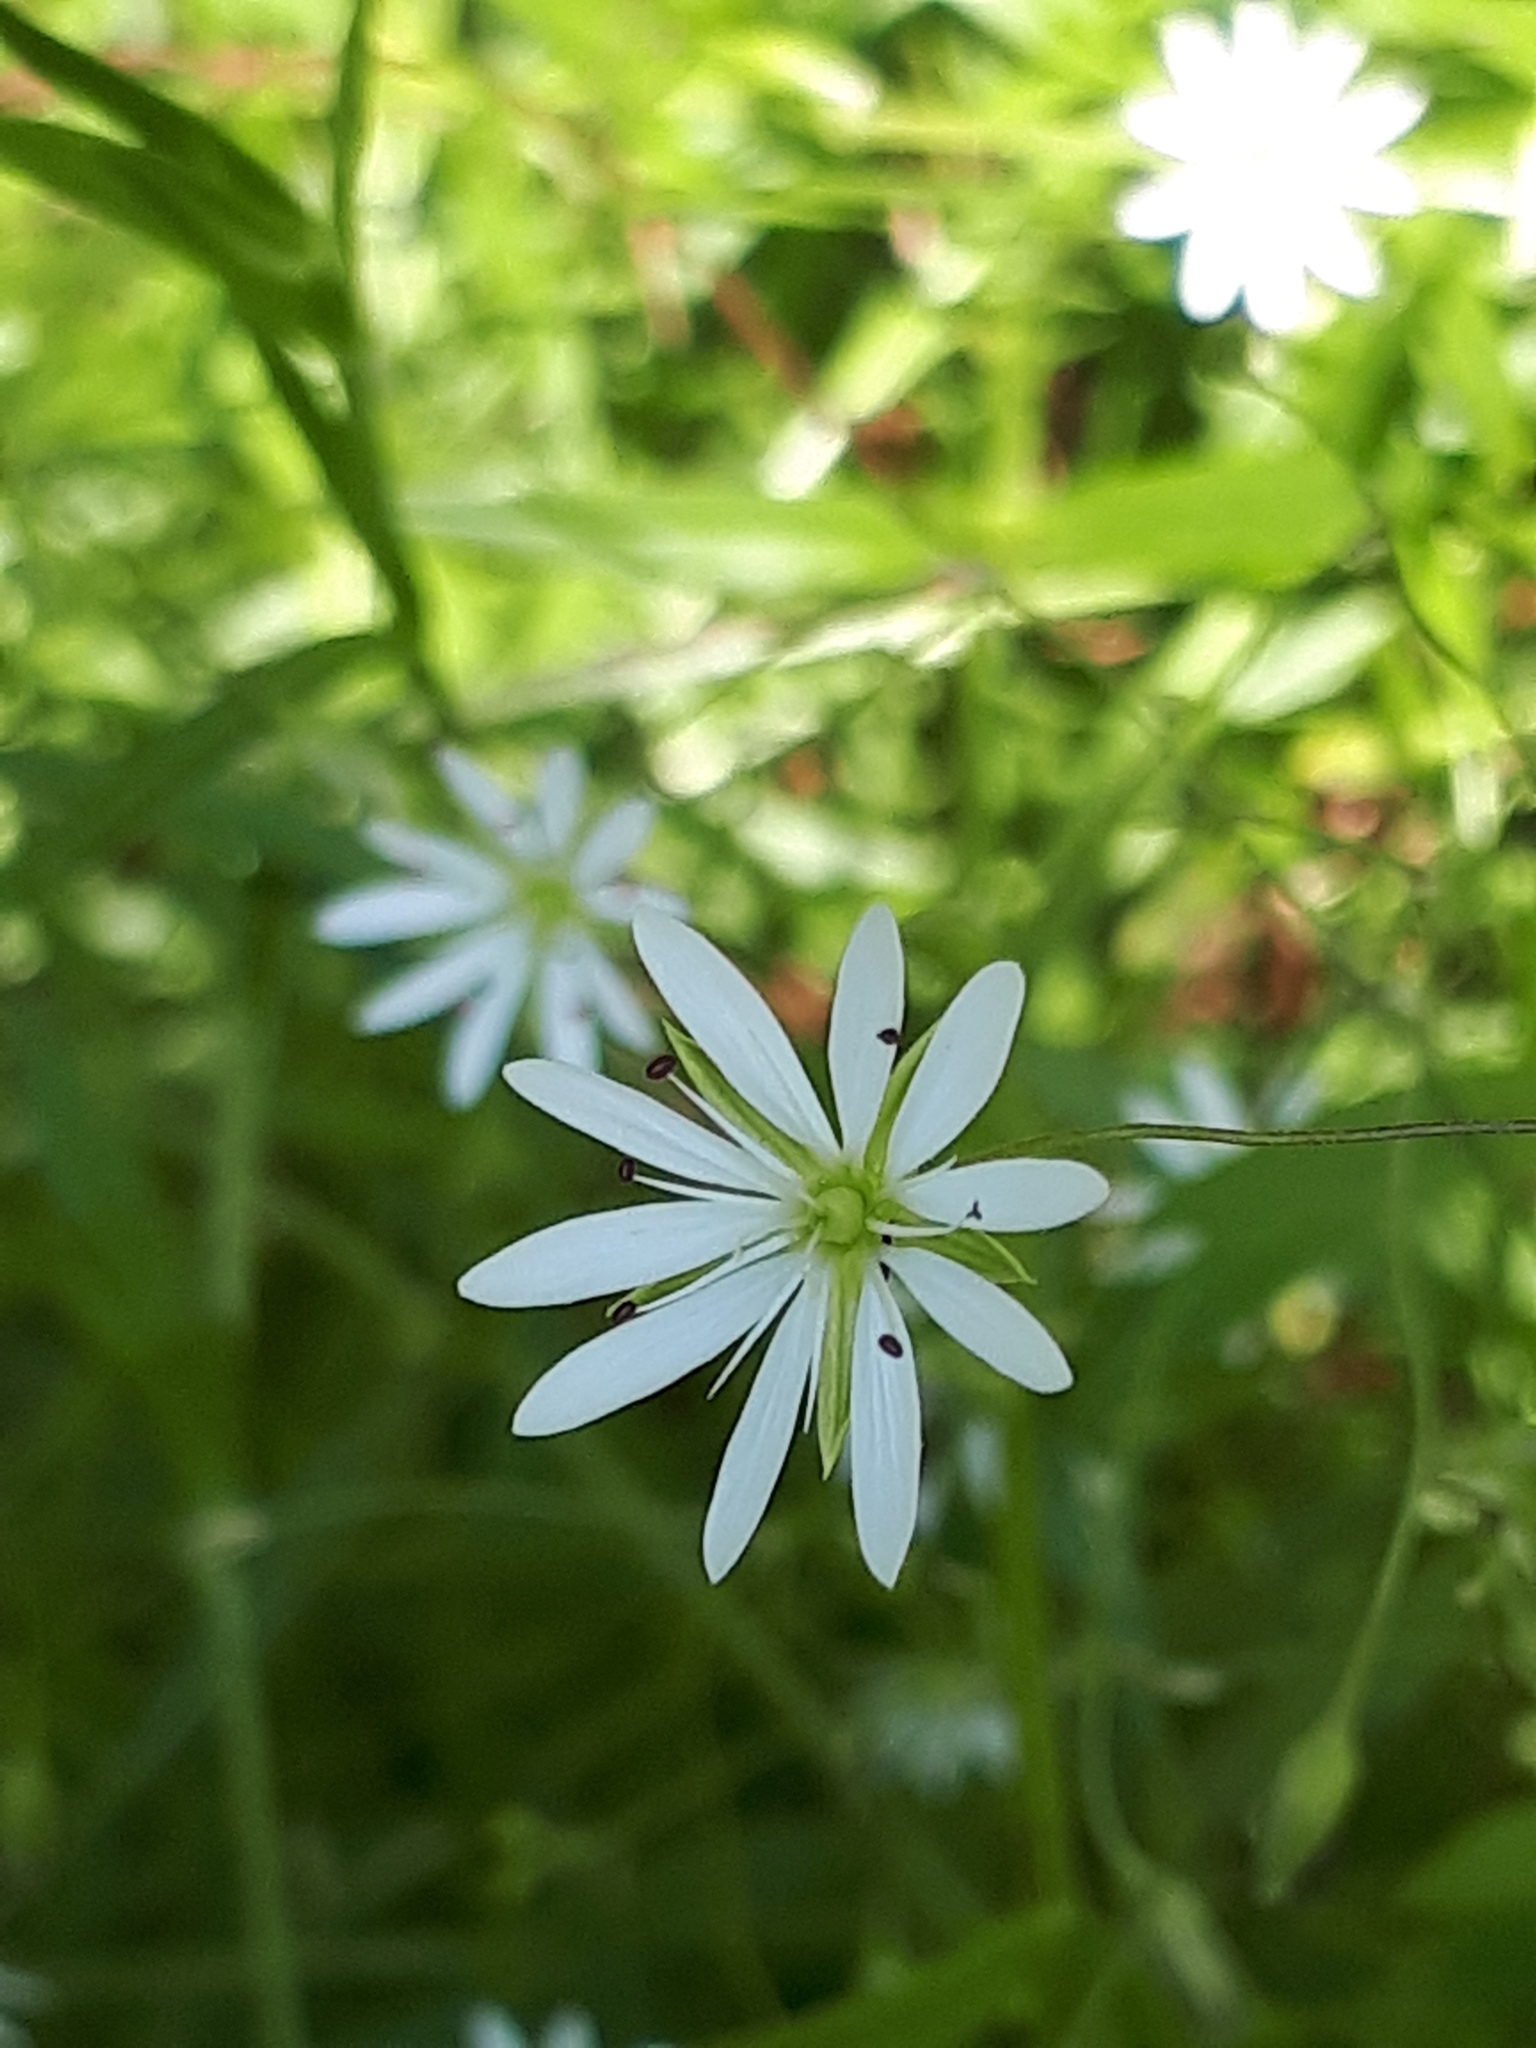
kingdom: Plantae
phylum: Tracheophyta
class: Magnoliopsida
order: Caryophyllales
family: Caryophyllaceae
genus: Stellaria
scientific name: Stellaria graminea
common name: Grass-like starwort
